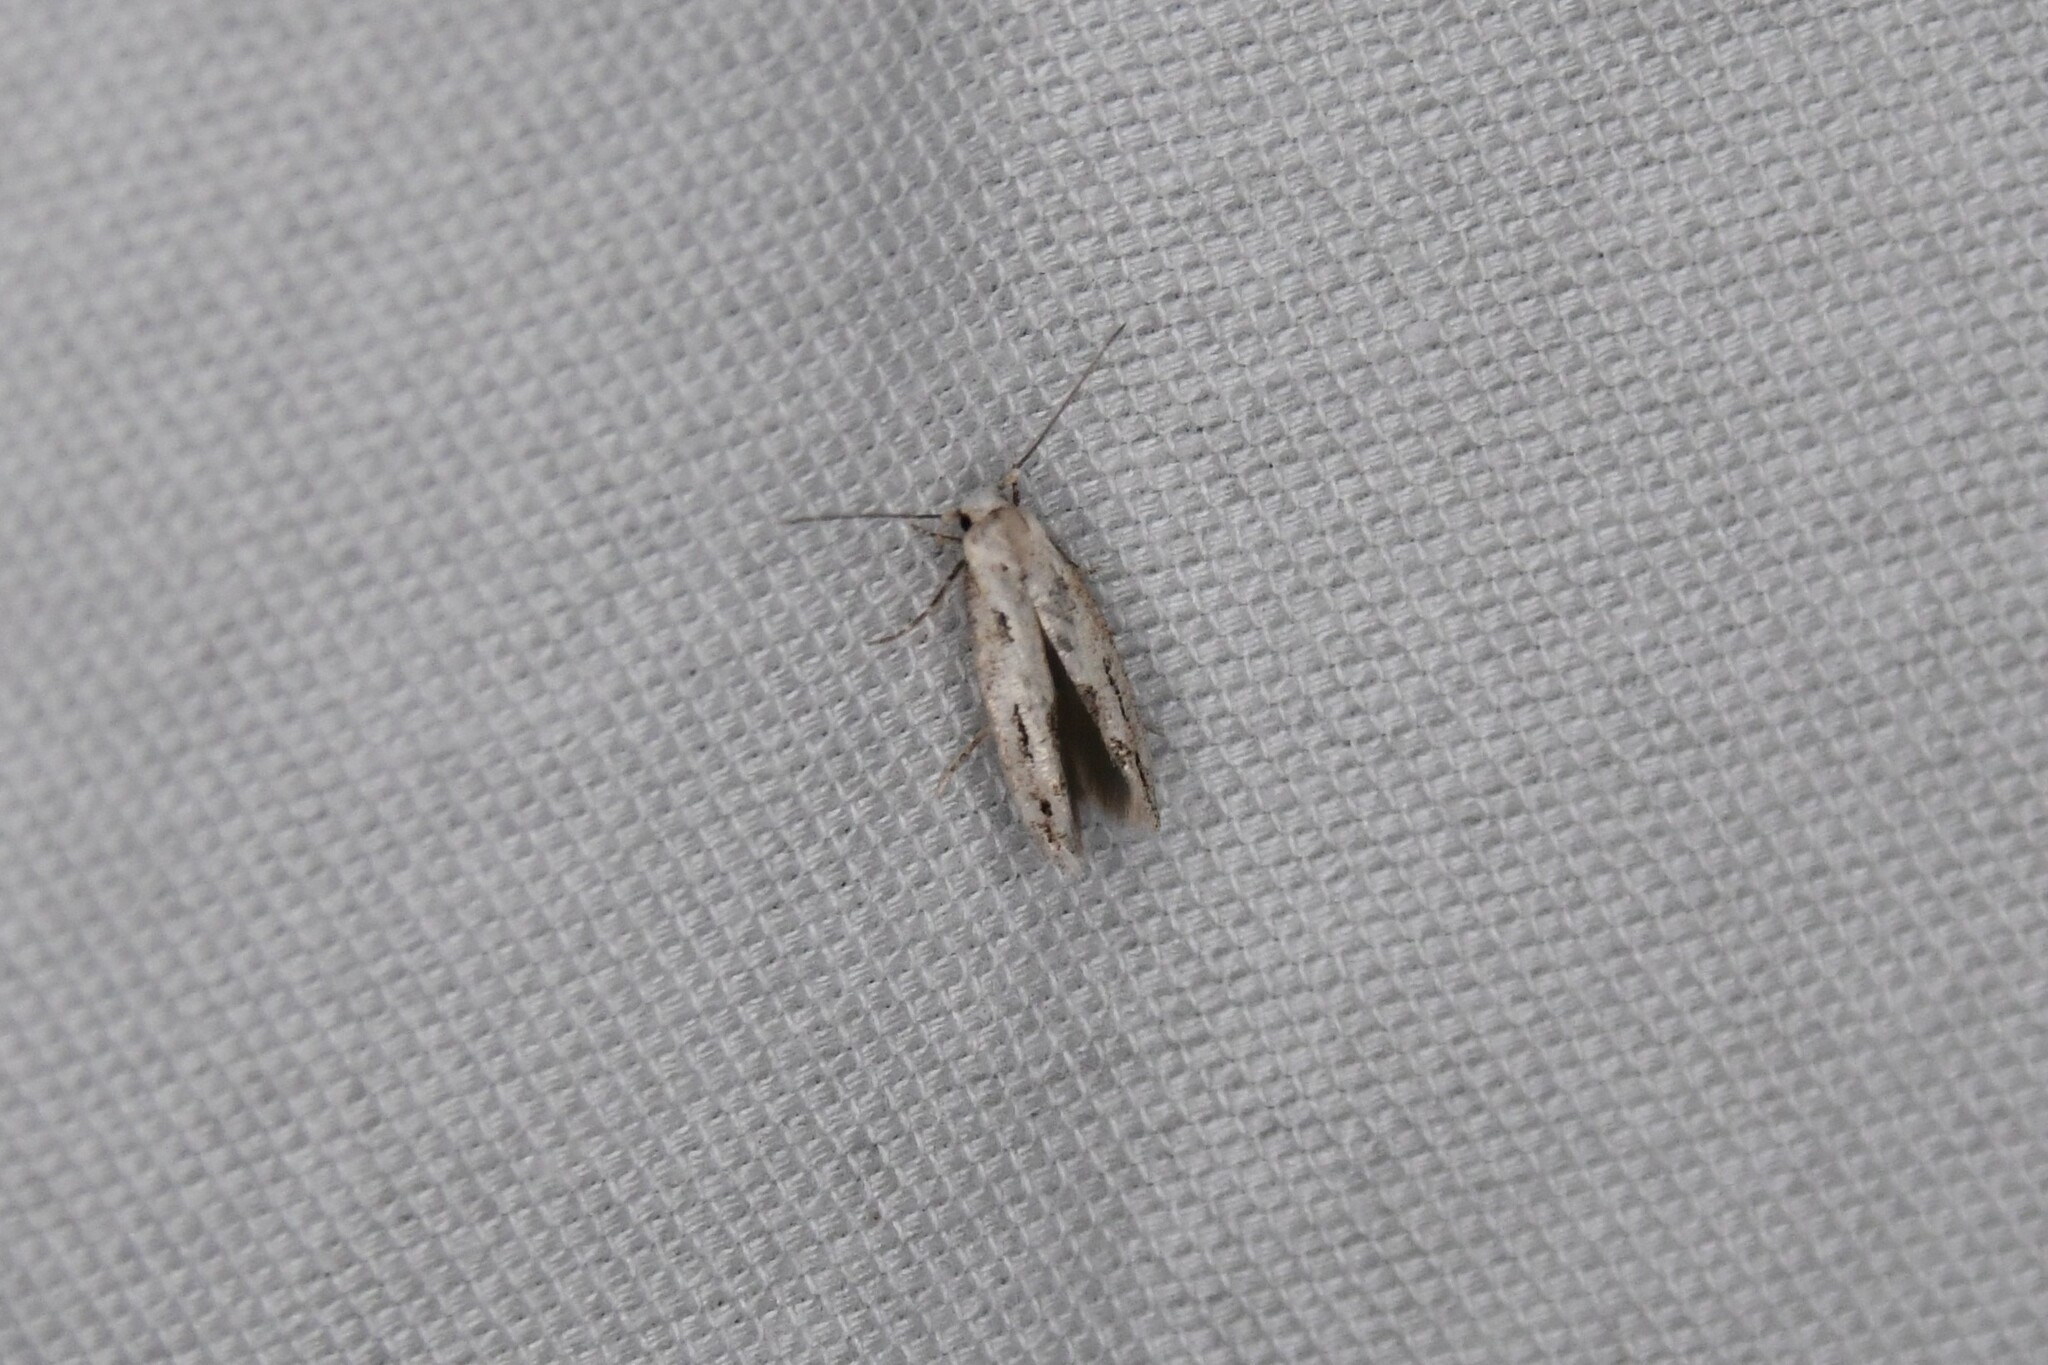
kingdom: Animalia
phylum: Arthropoda
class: Insecta
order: Lepidoptera
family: Momphidae
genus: Mompha
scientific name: Mompha brevivittella
